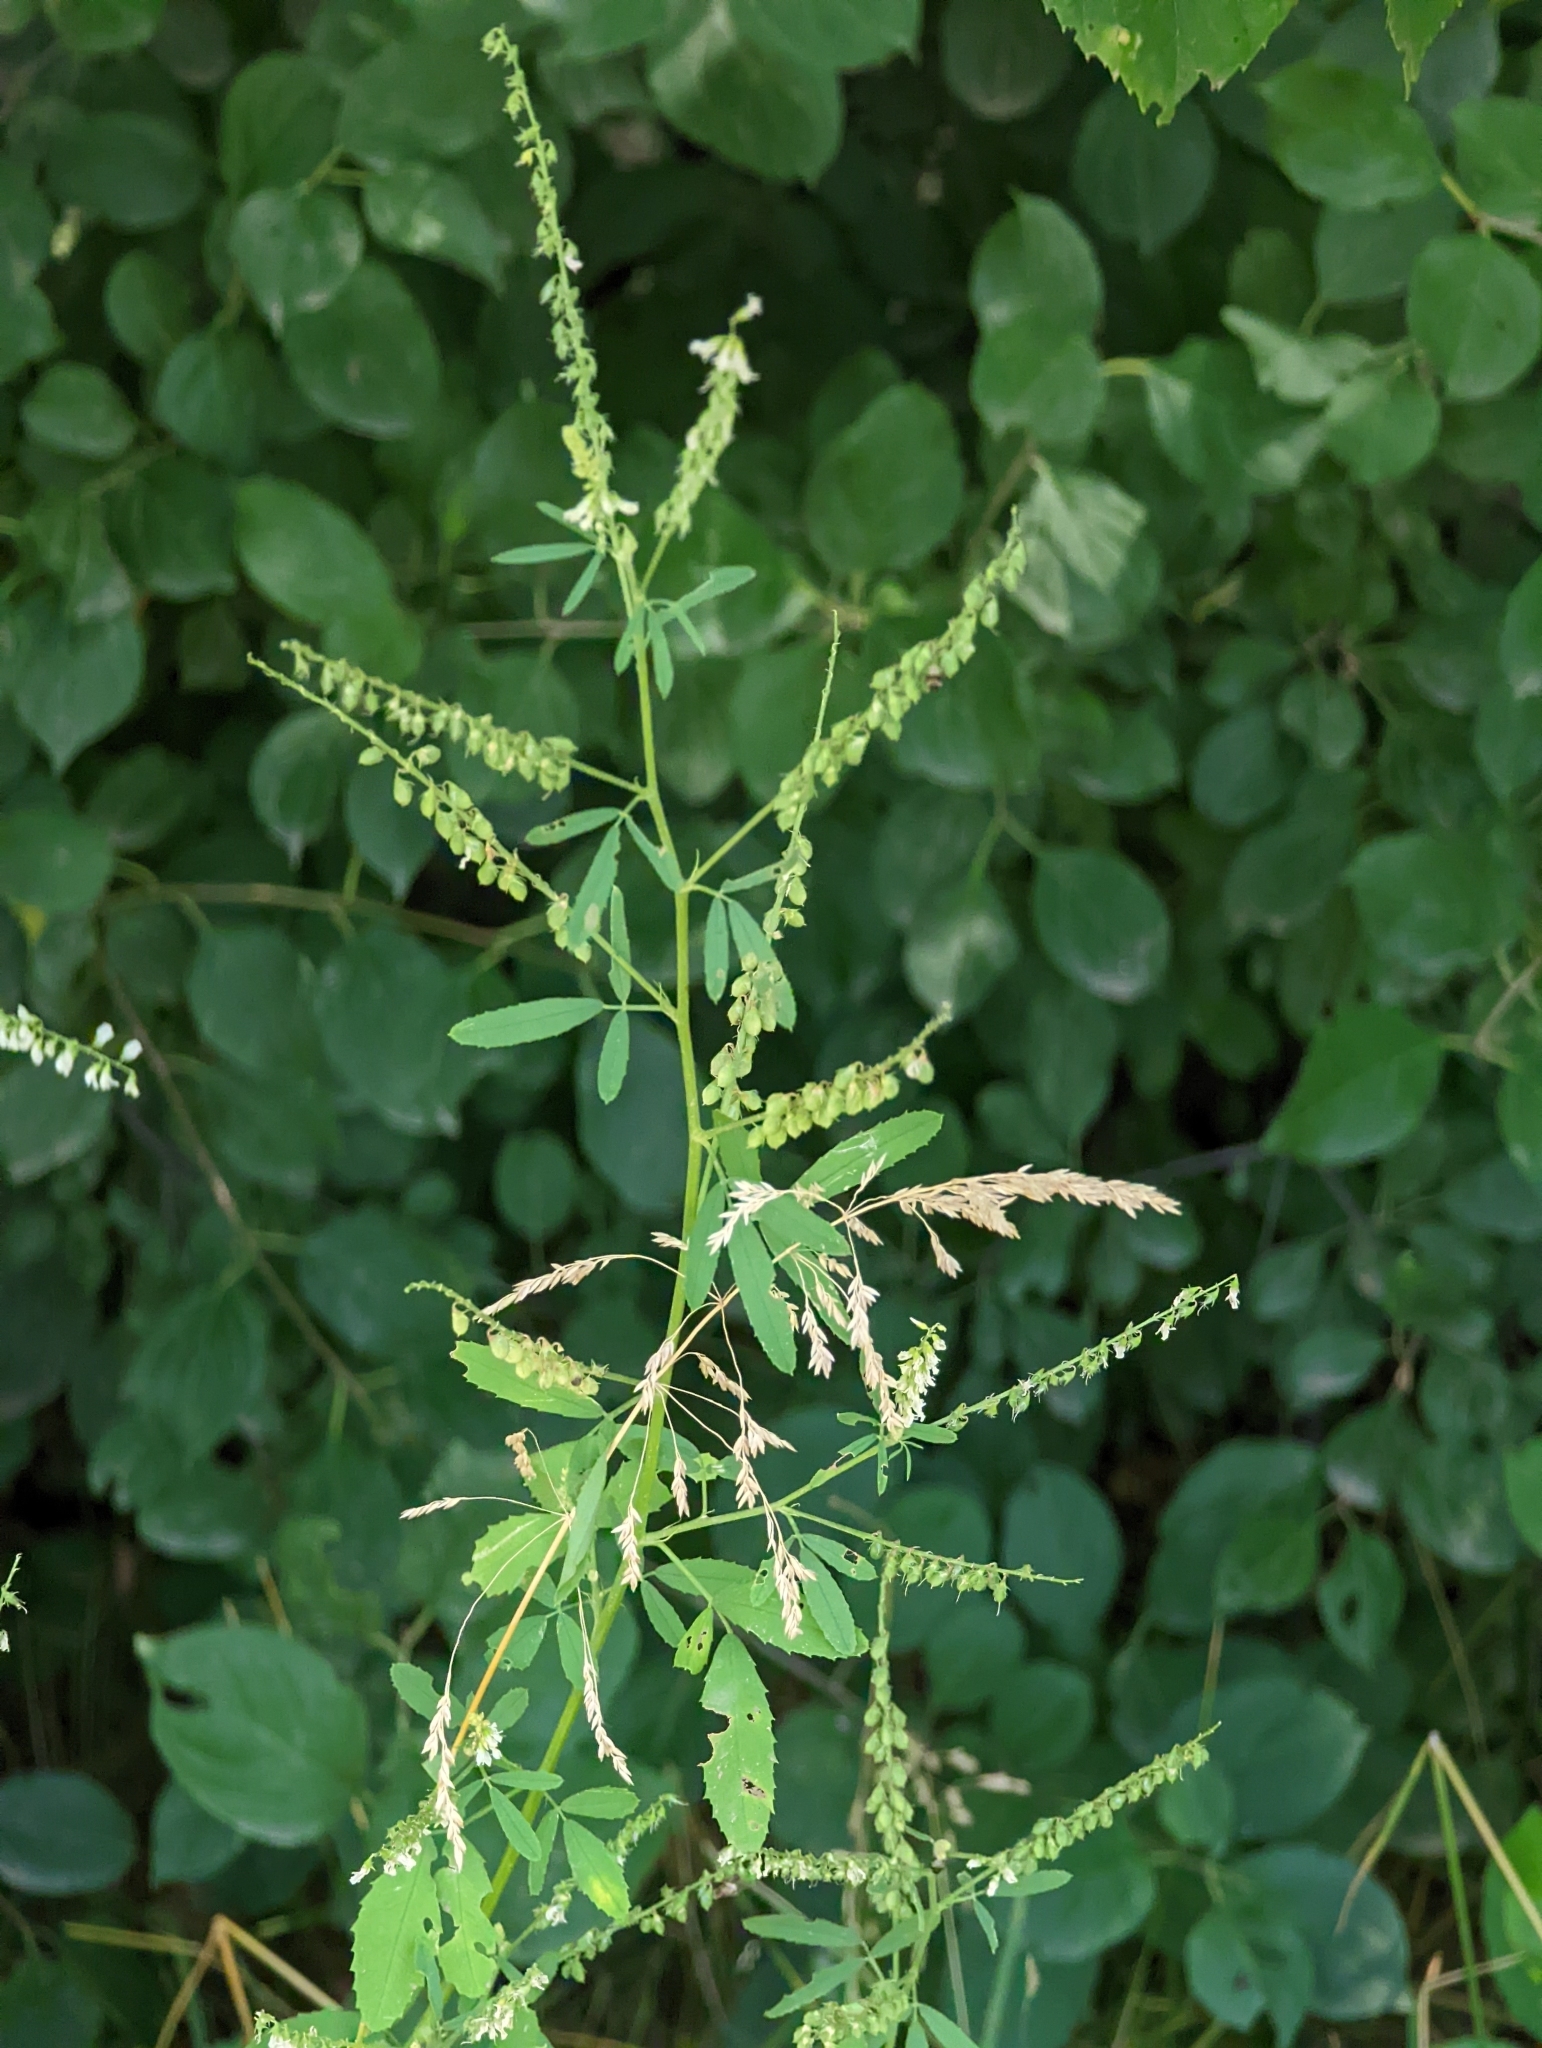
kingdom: Plantae
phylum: Tracheophyta
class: Magnoliopsida
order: Fabales
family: Fabaceae
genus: Melilotus
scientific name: Melilotus albus
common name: White melilot
